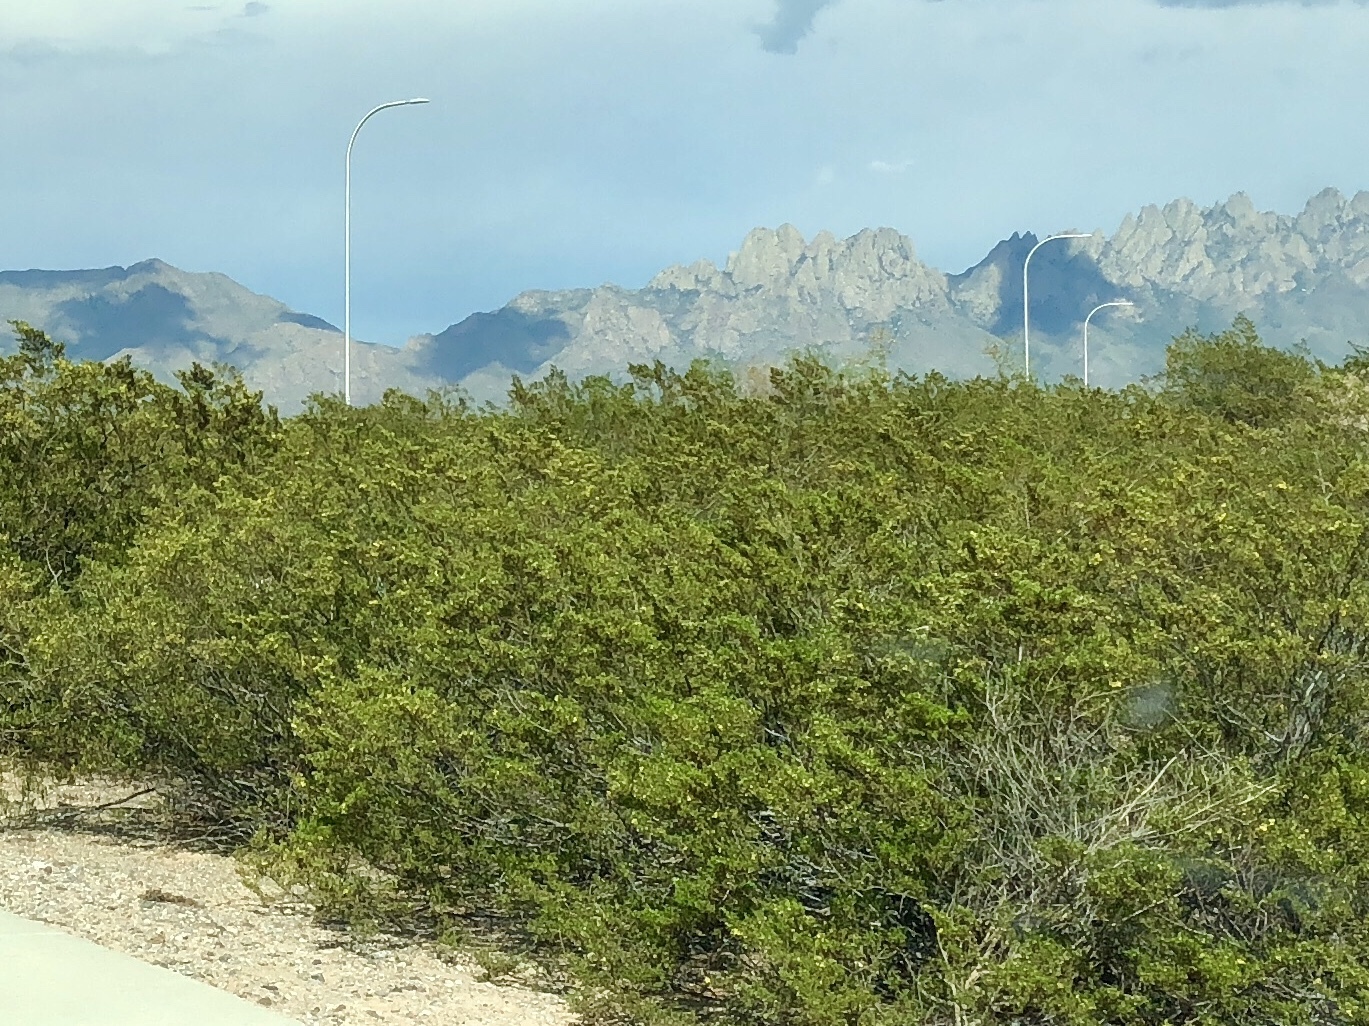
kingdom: Plantae
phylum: Tracheophyta
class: Magnoliopsida
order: Zygophyllales
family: Zygophyllaceae
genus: Larrea
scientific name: Larrea tridentata
